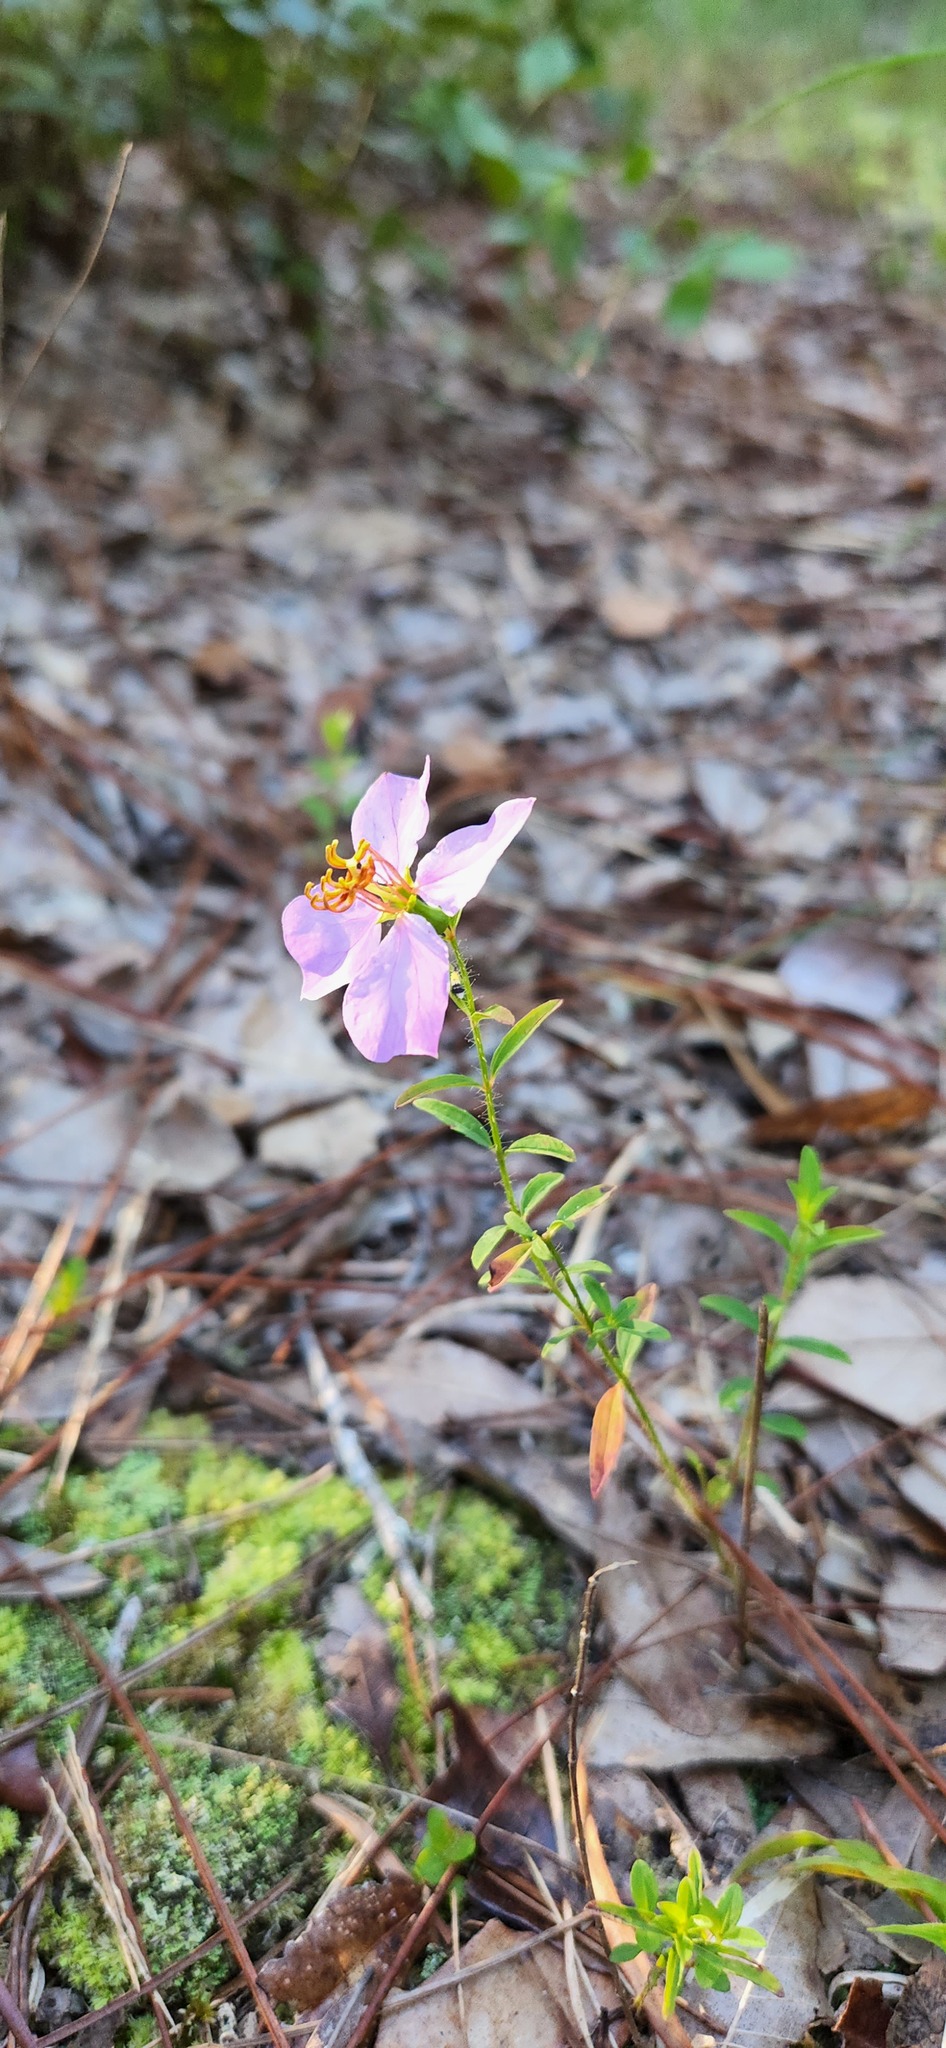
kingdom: Plantae
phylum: Tracheophyta
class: Magnoliopsida
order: Myrtales
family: Melastomataceae
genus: Rhexia
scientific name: Rhexia mariana
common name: Dull meadow-pitcher
